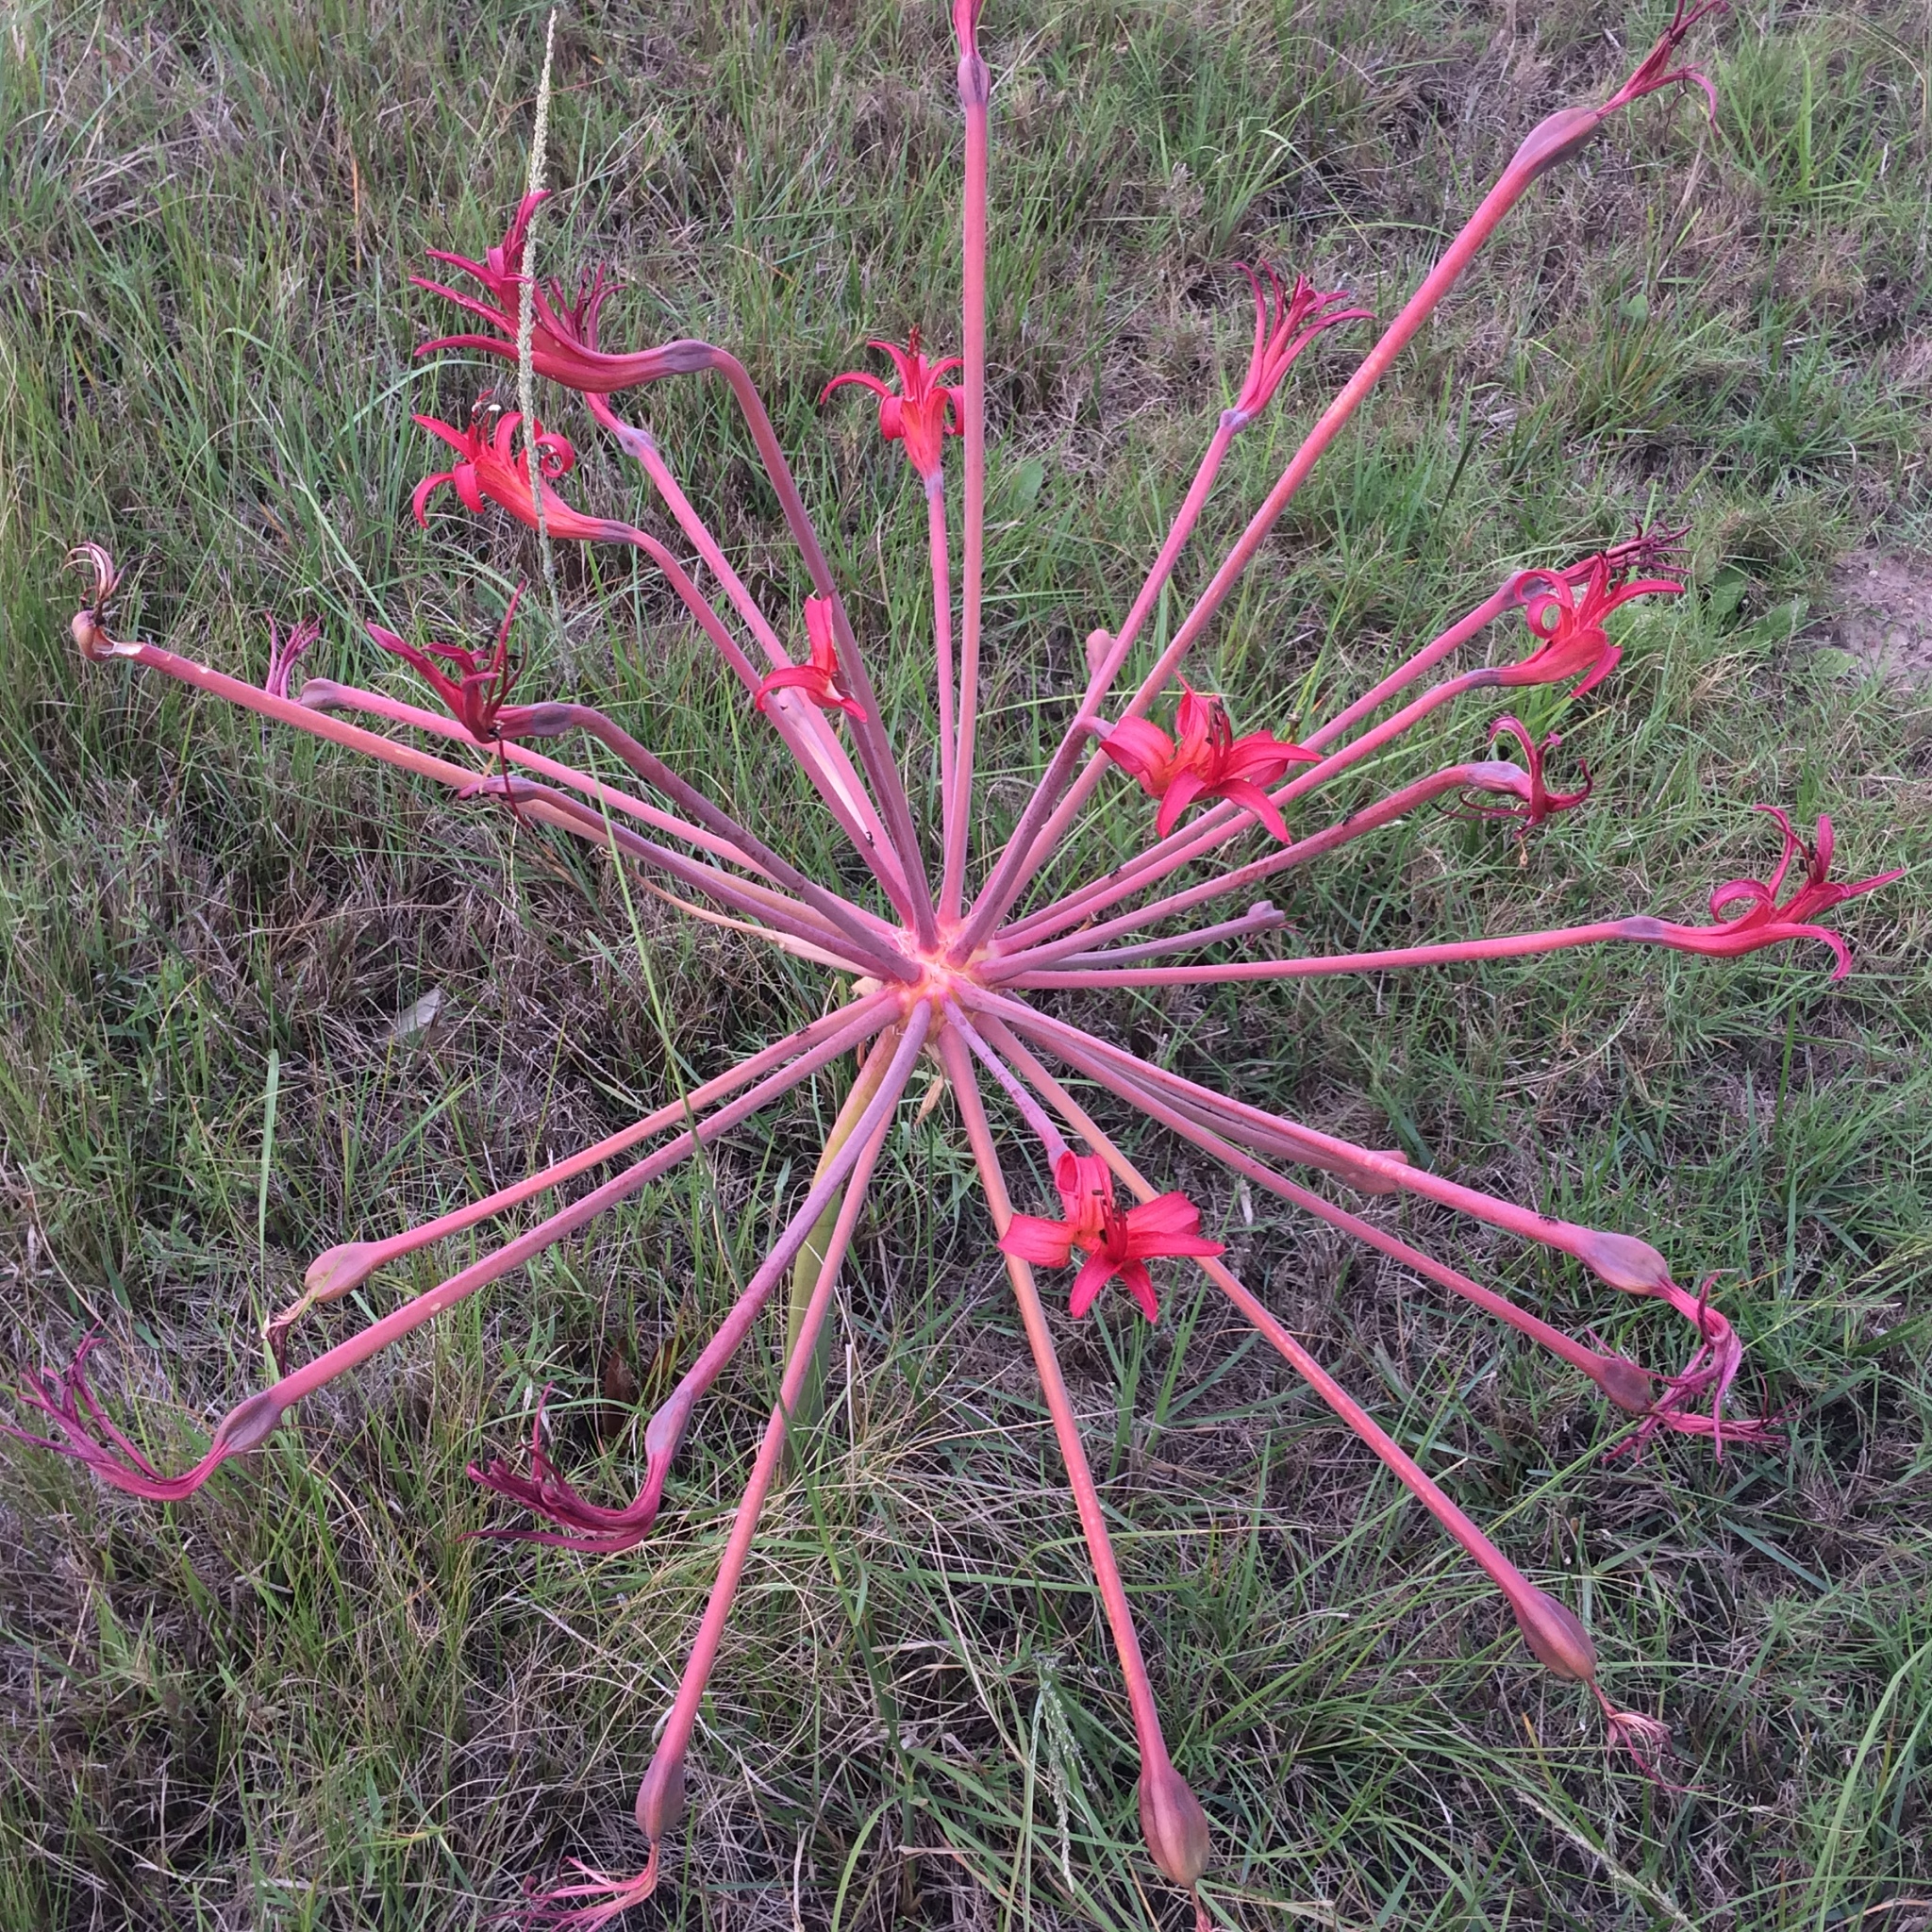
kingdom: Plantae
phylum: Tracheophyta
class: Liliopsida
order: Asparagales
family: Amaryllidaceae
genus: Brunsvigia
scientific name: Brunsvigia litoralis
